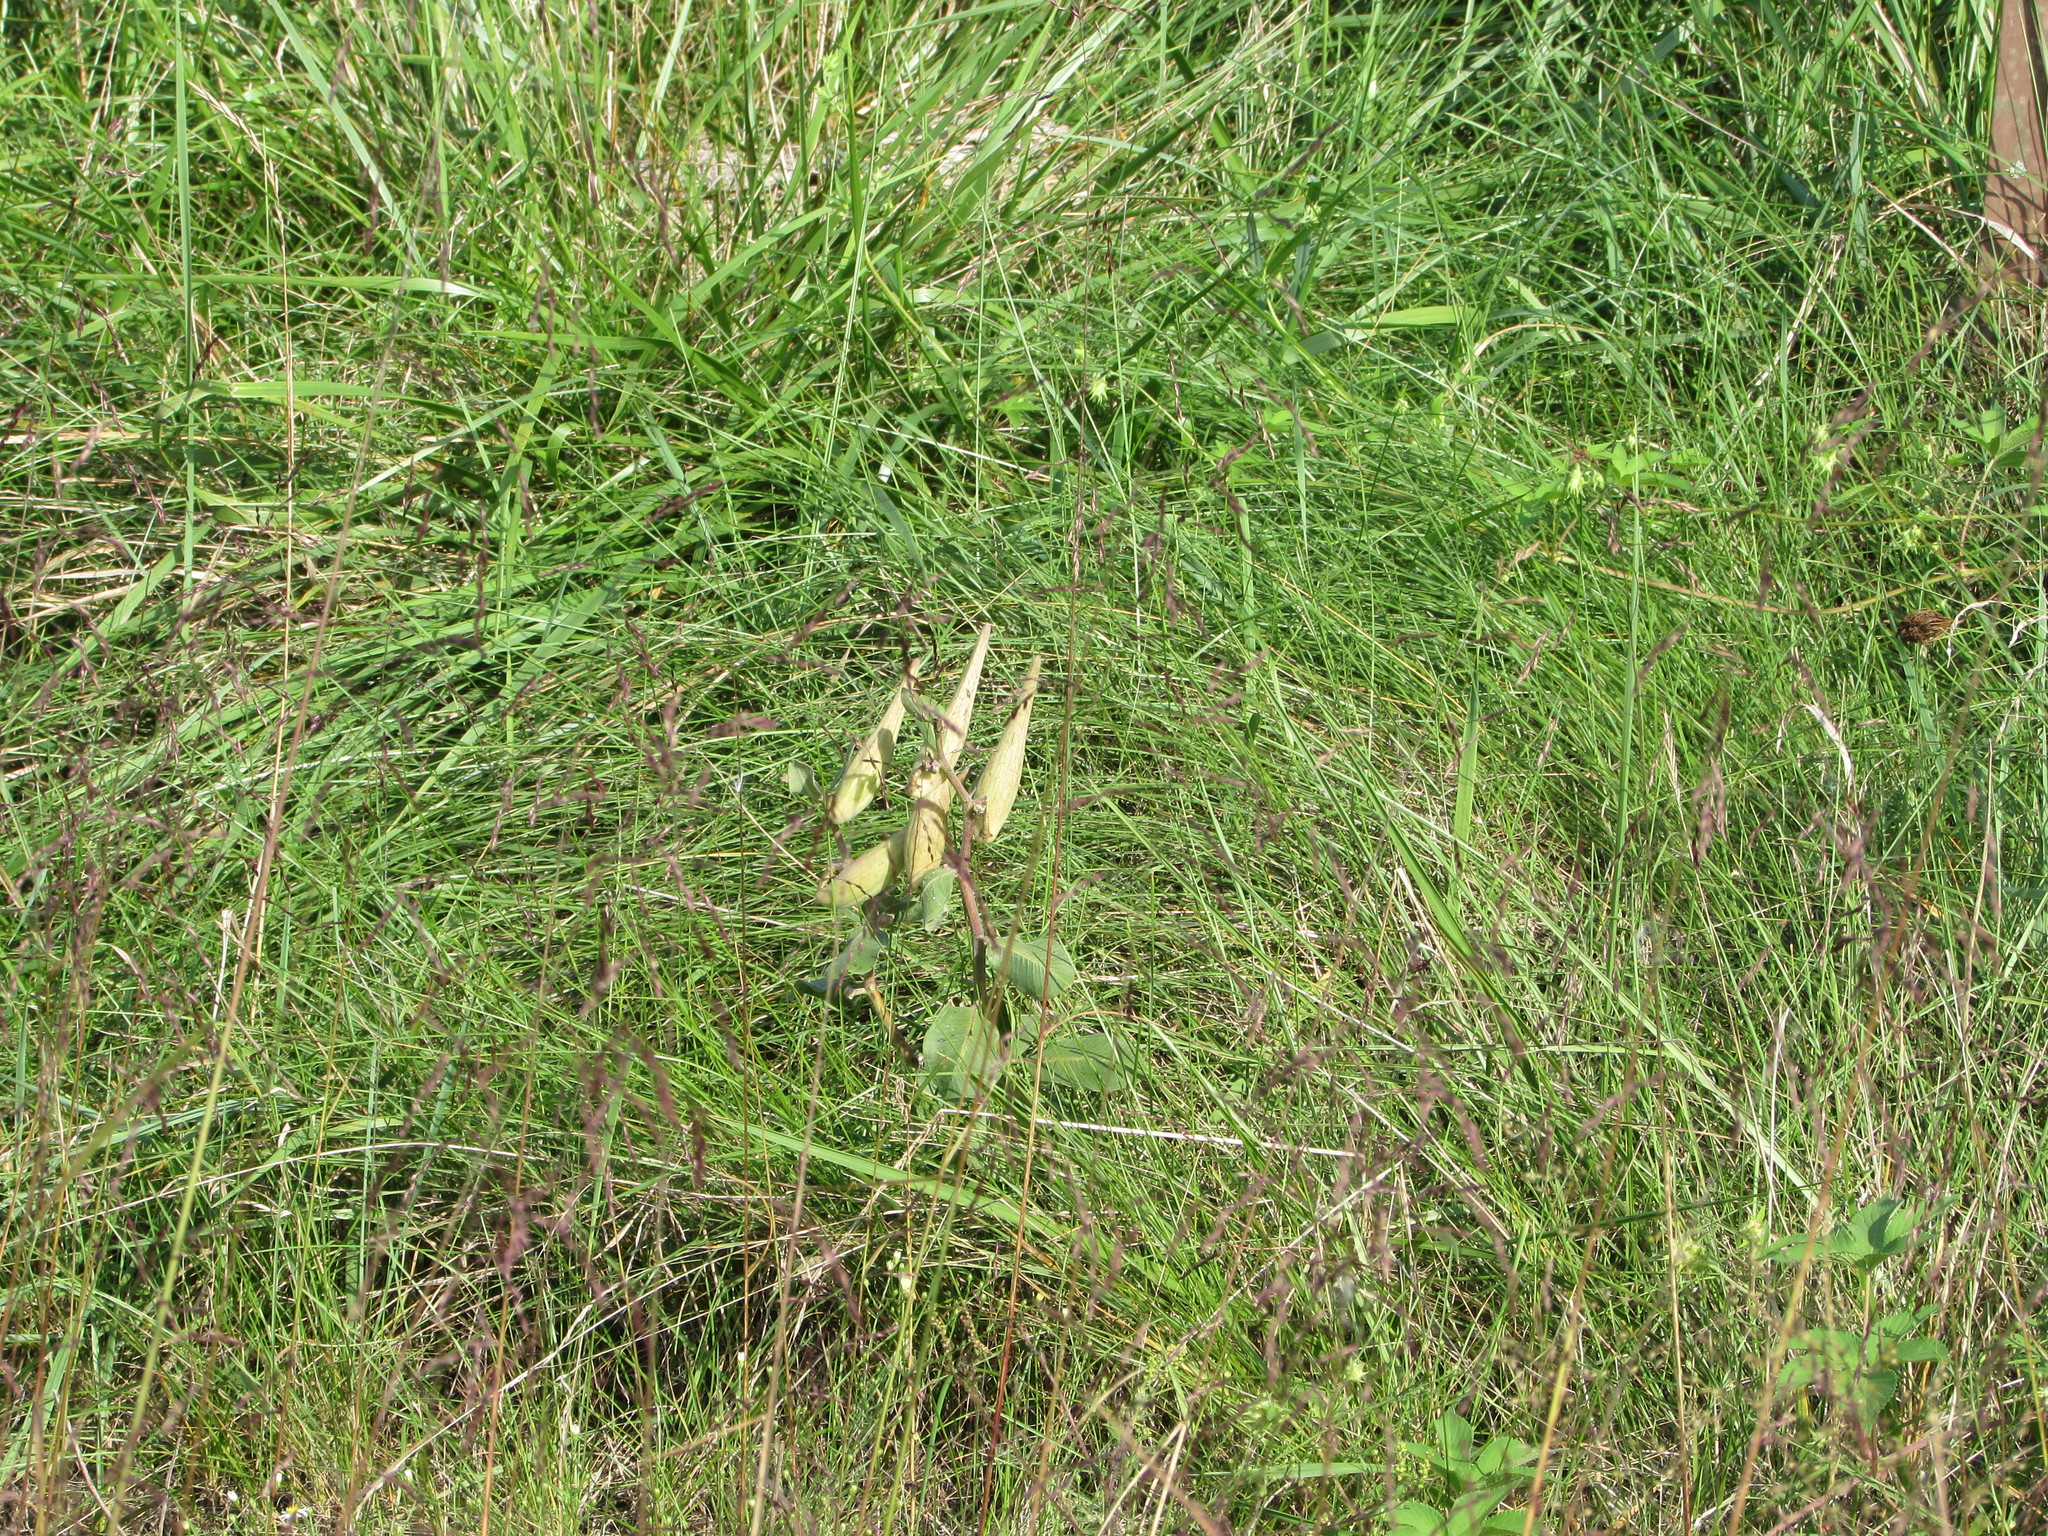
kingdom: Plantae
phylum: Tracheophyta
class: Magnoliopsida
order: Gentianales
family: Apocynaceae
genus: Asclepias
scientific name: Asclepias viridiflora
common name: Green comet milkweed
